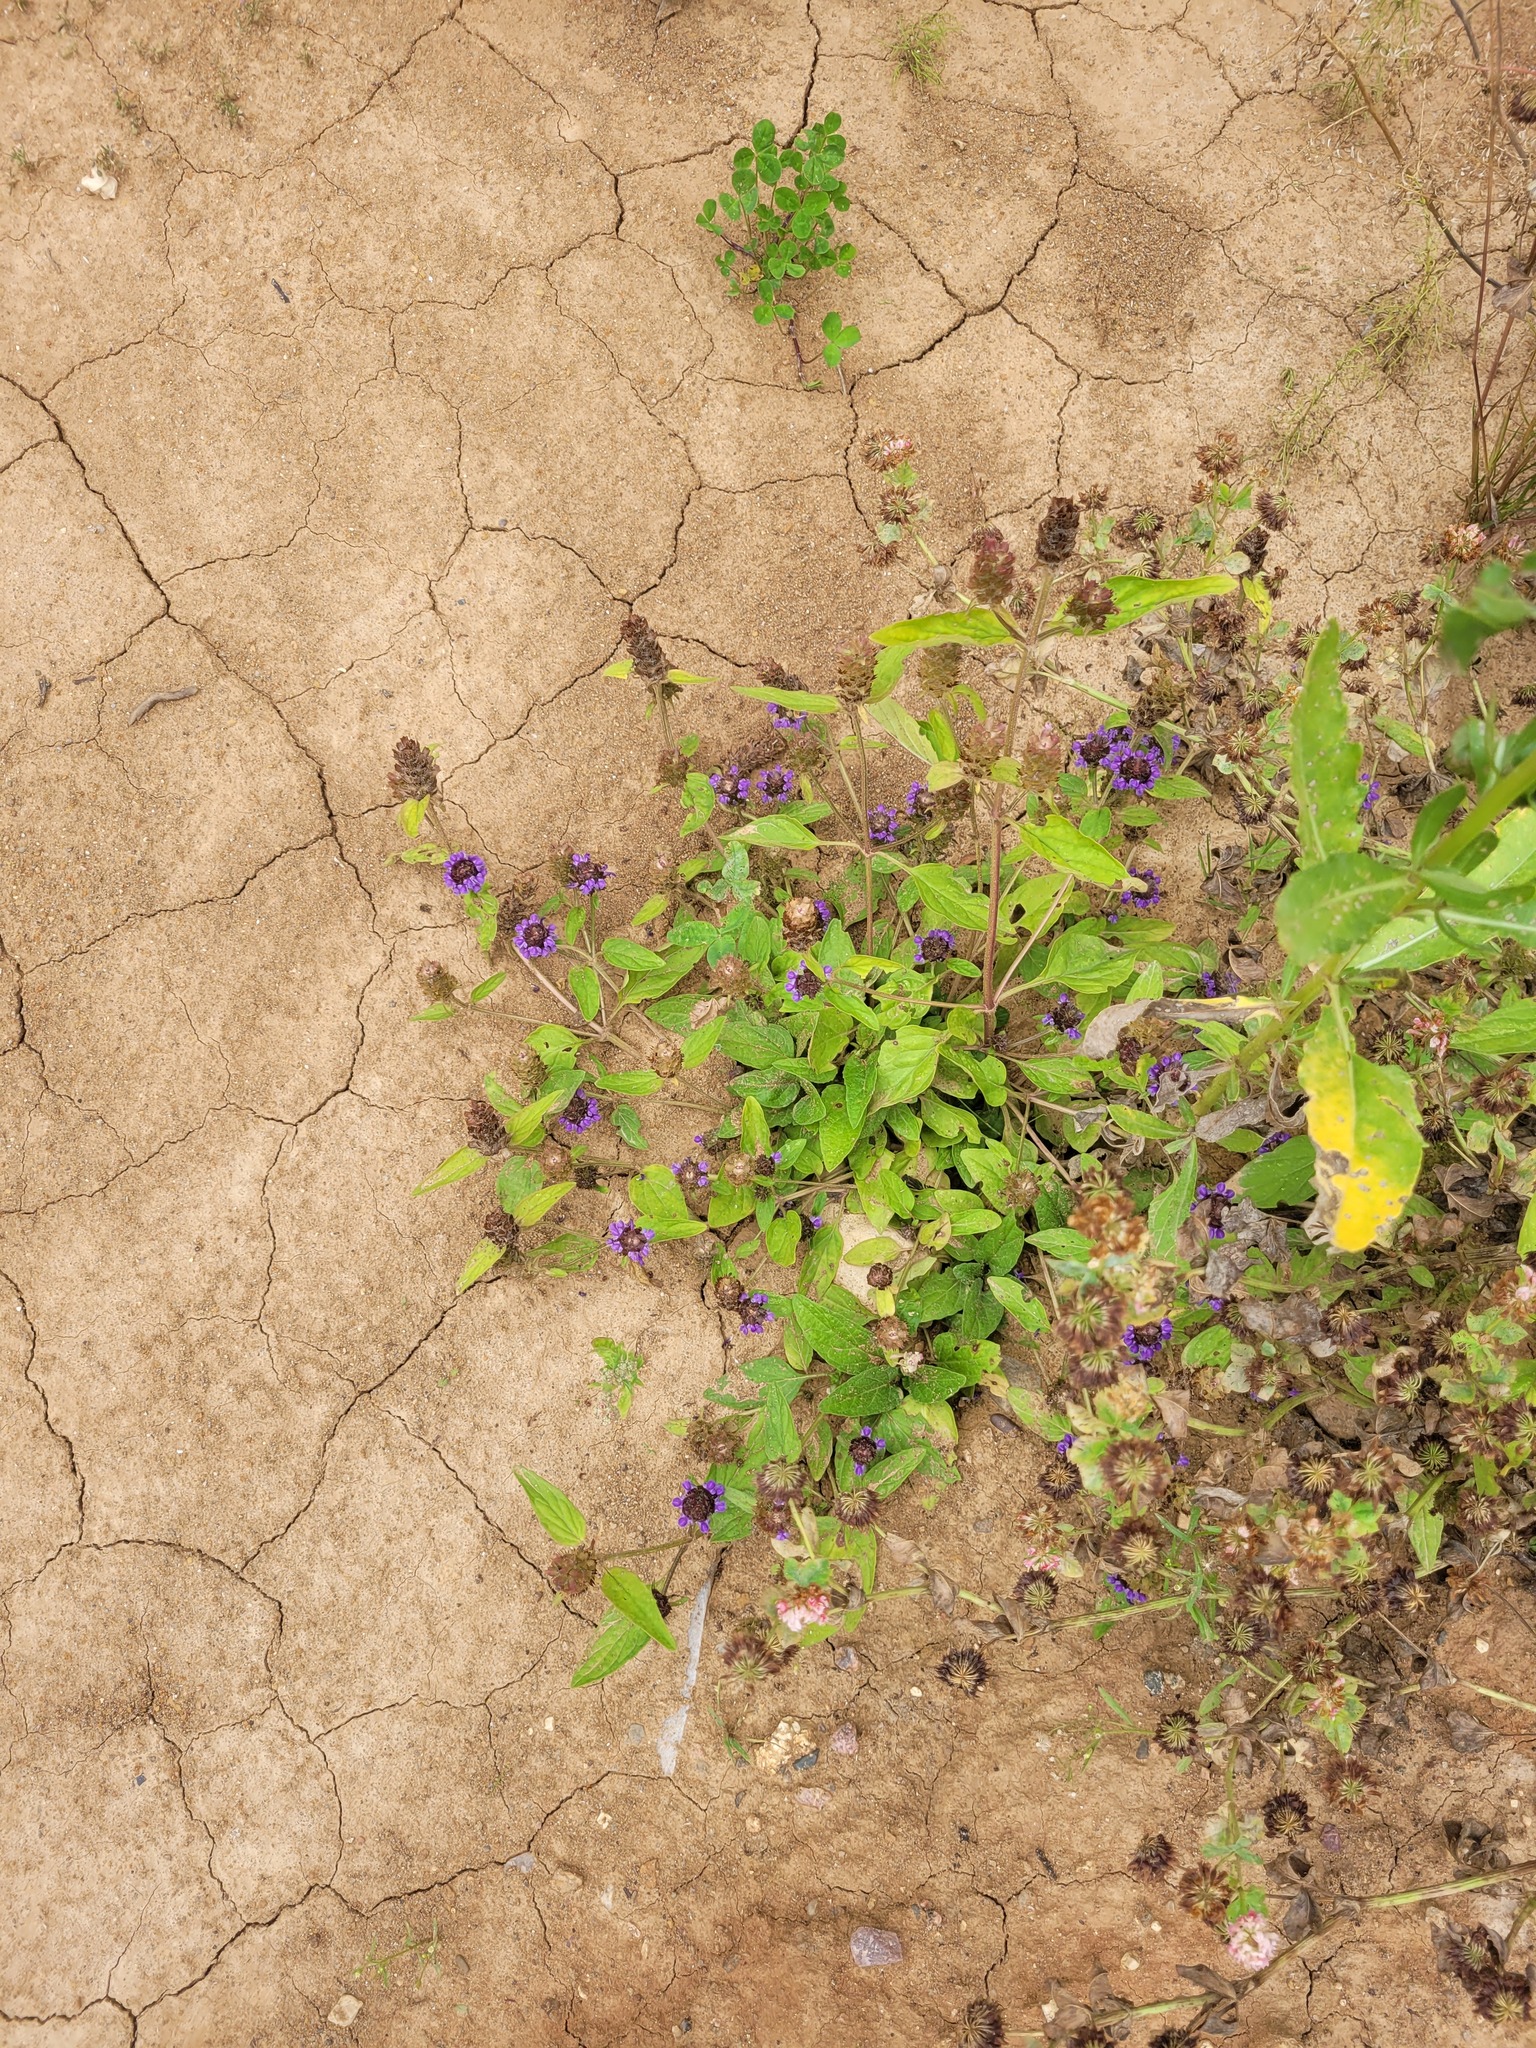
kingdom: Plantae
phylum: Tracheophyta
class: Magnoliopsida
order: Lamiales
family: Lamiaceae
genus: Prunella
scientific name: Prunella vulgaris
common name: Heal-all
